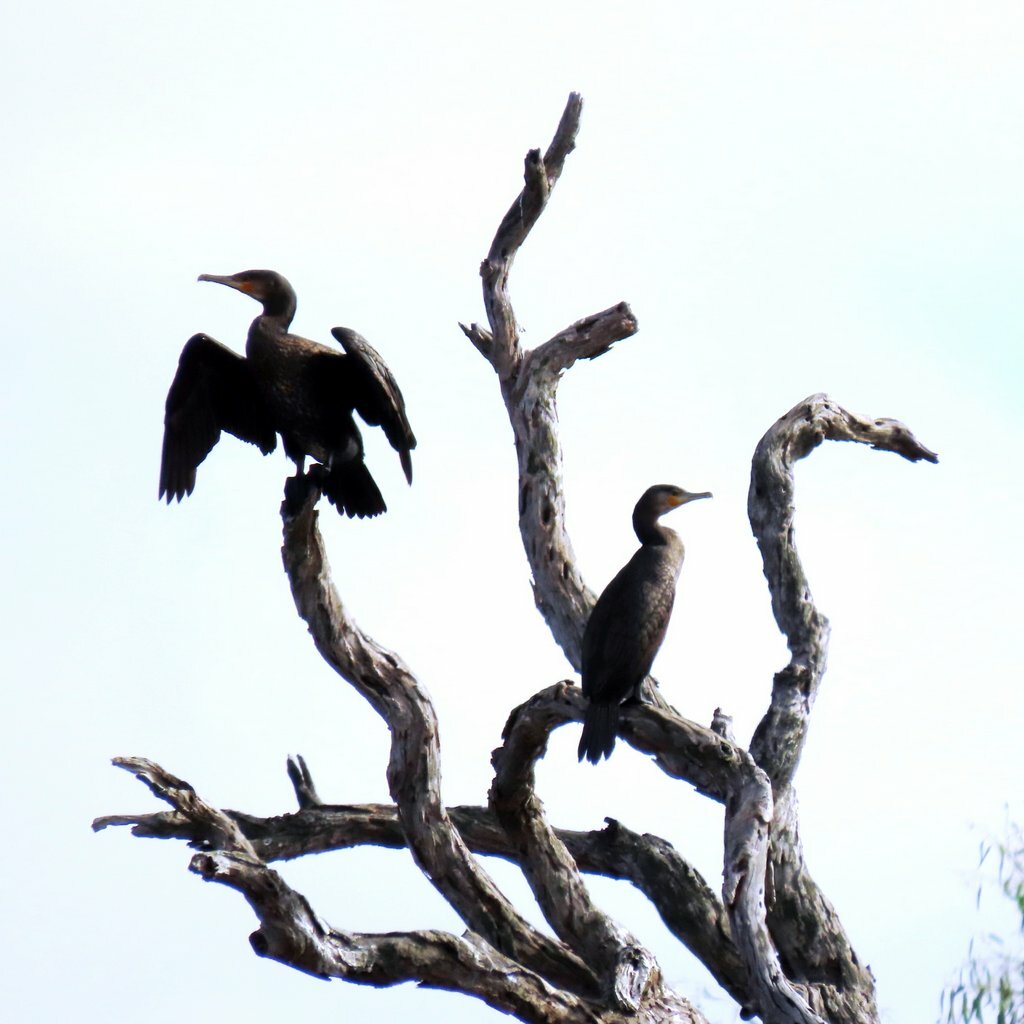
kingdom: Animalia
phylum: Chordata
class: Aves
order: Suliformes
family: Phalacrocoracidae
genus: Phalacrocorax
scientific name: Phalacrocorax carbo
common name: Great cormorant
